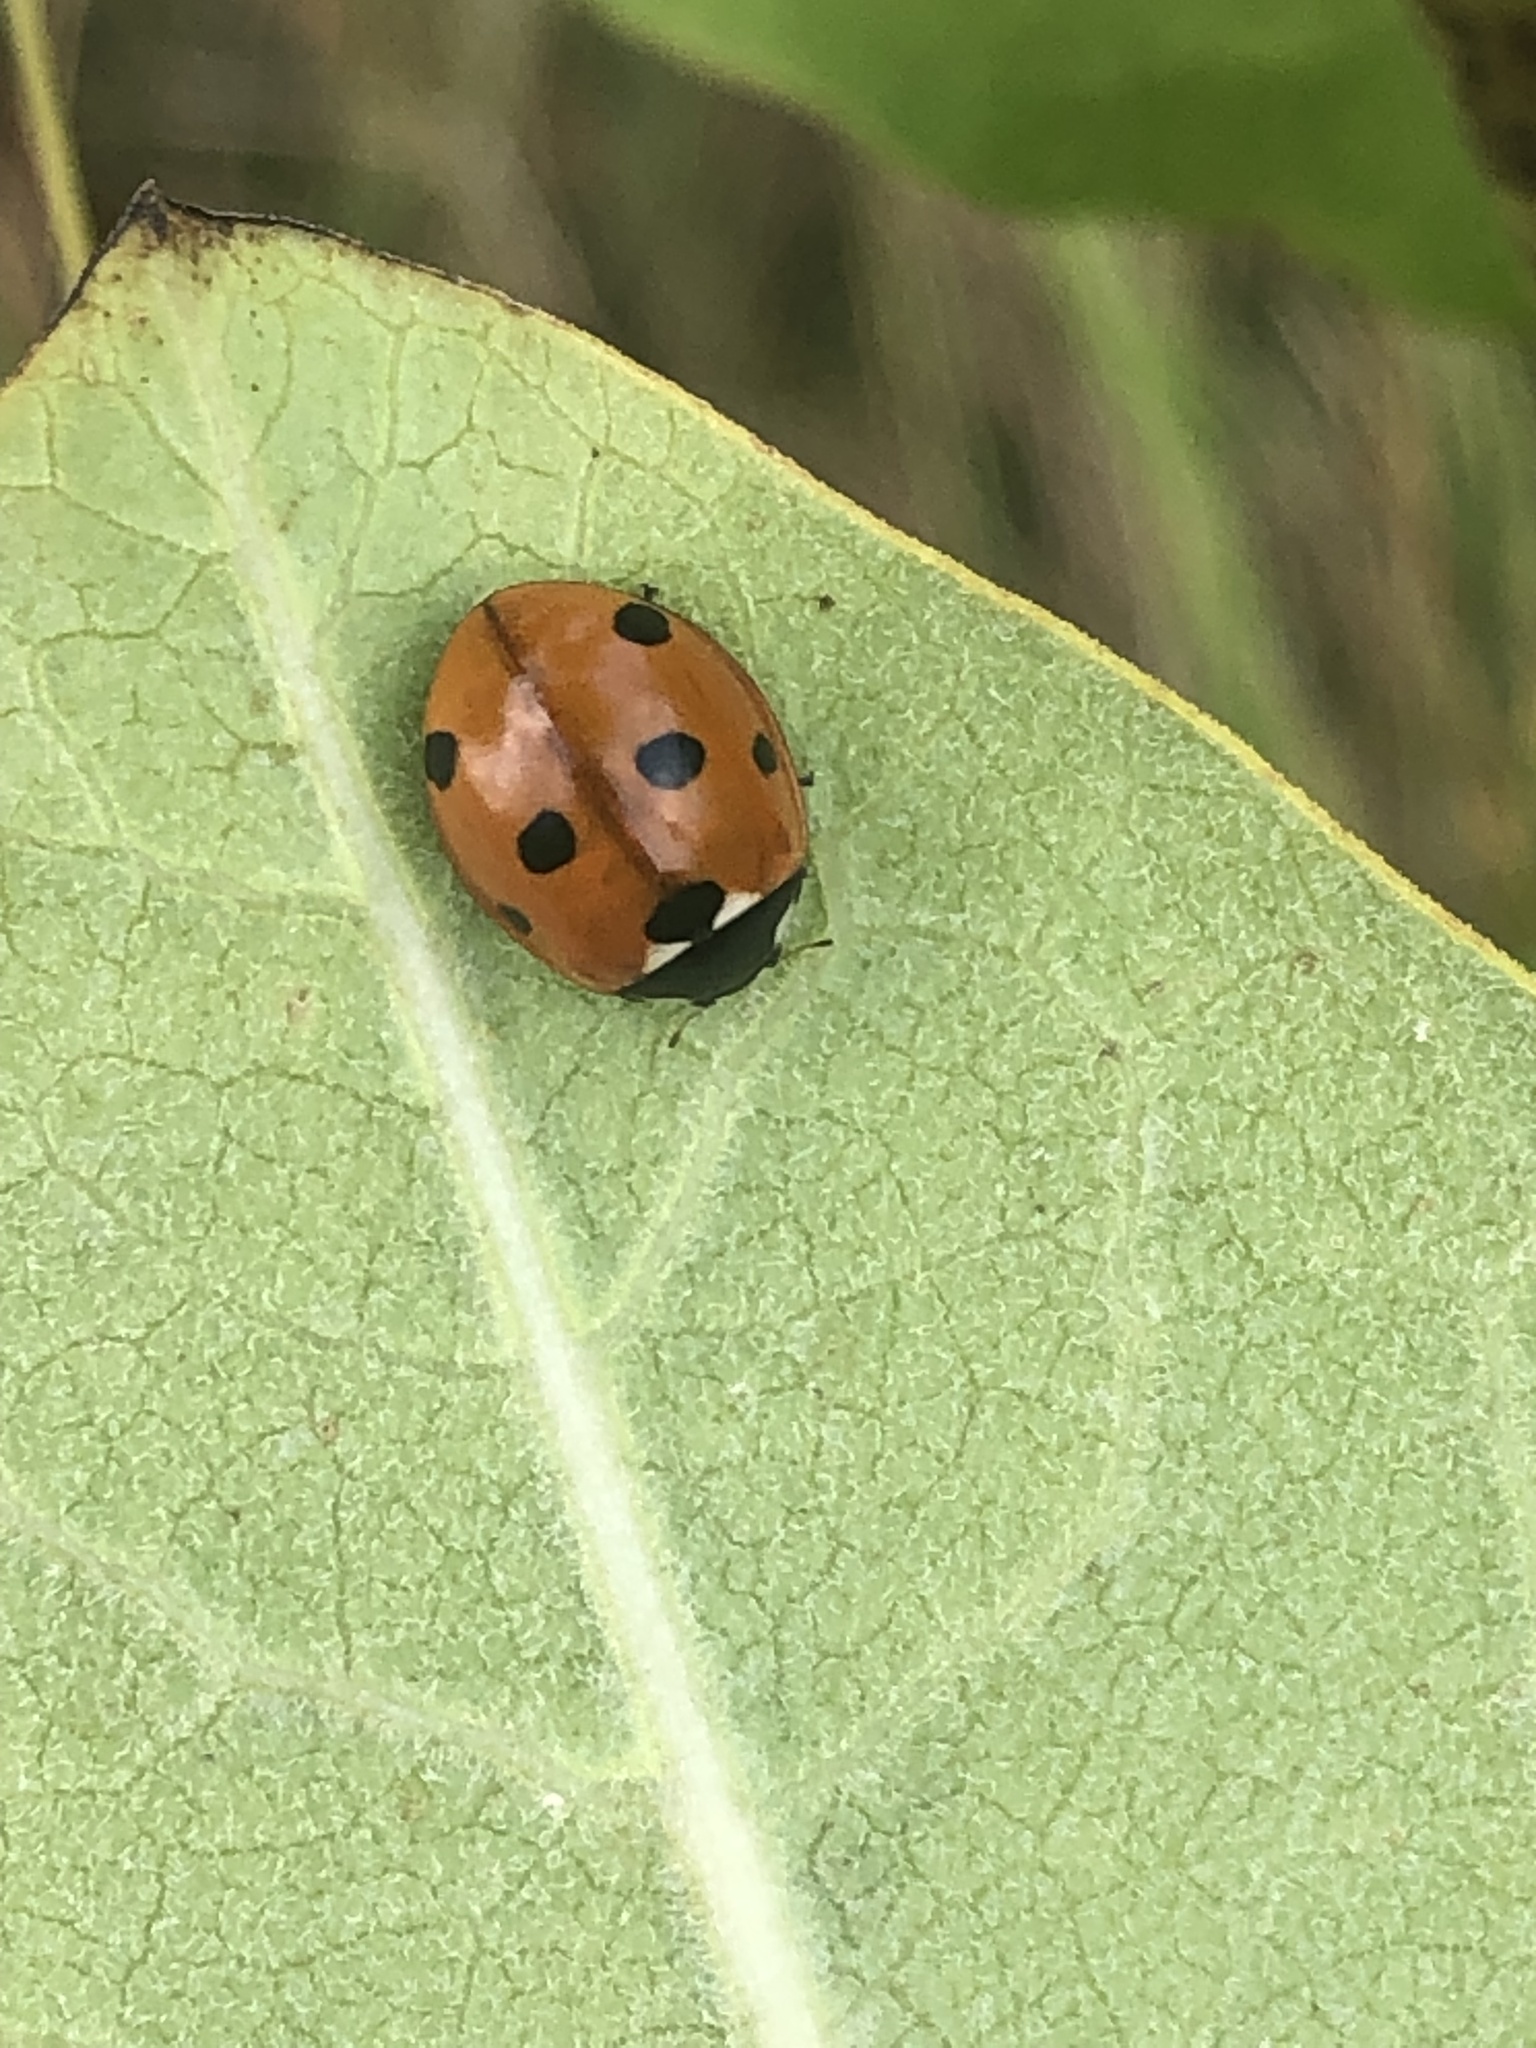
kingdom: Animalia
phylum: Arthropoda
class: Insecta
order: Coleoptera
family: Coccinellidae
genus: Coccinella
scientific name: Coccinella septempunctata
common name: Sevenspotted lady beetle
